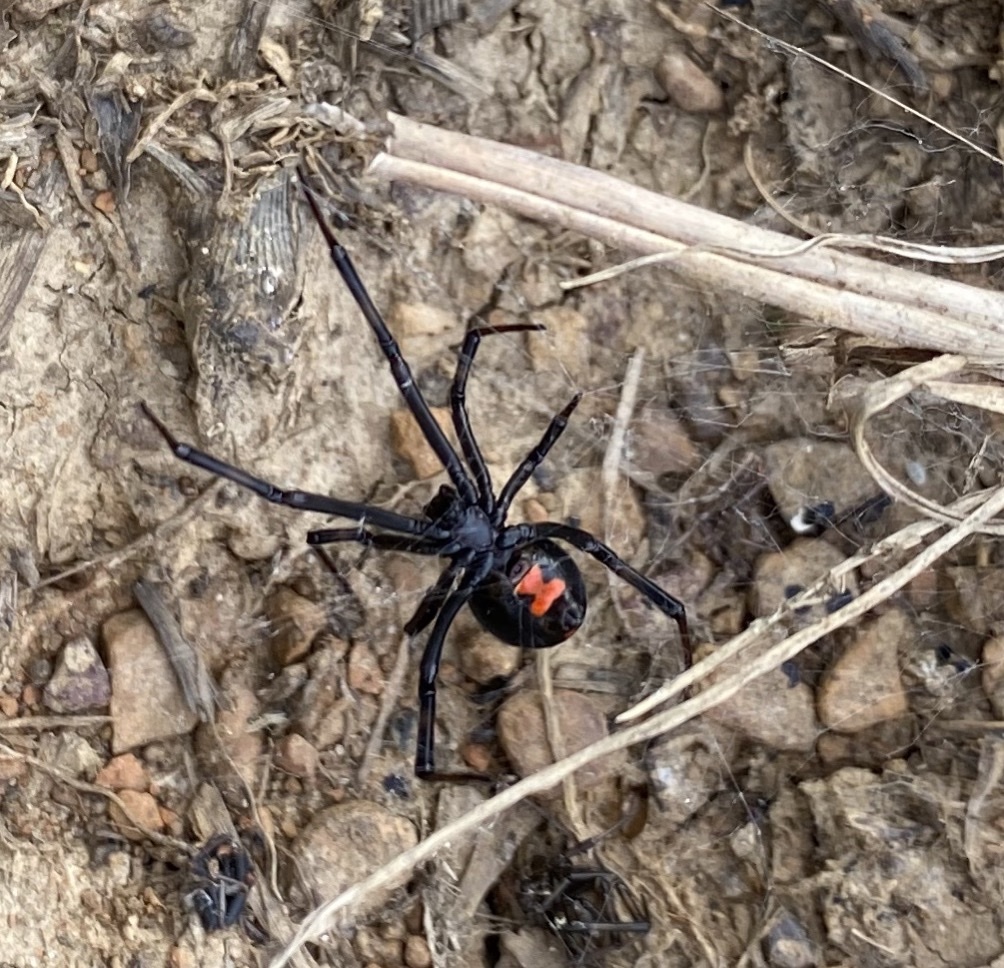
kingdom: Animalia
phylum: Arthropoda
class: Arachnida
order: Araneae
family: Theridiidae
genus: Latrodectus
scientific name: Latrodectus mactans
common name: Cobweb spiders
